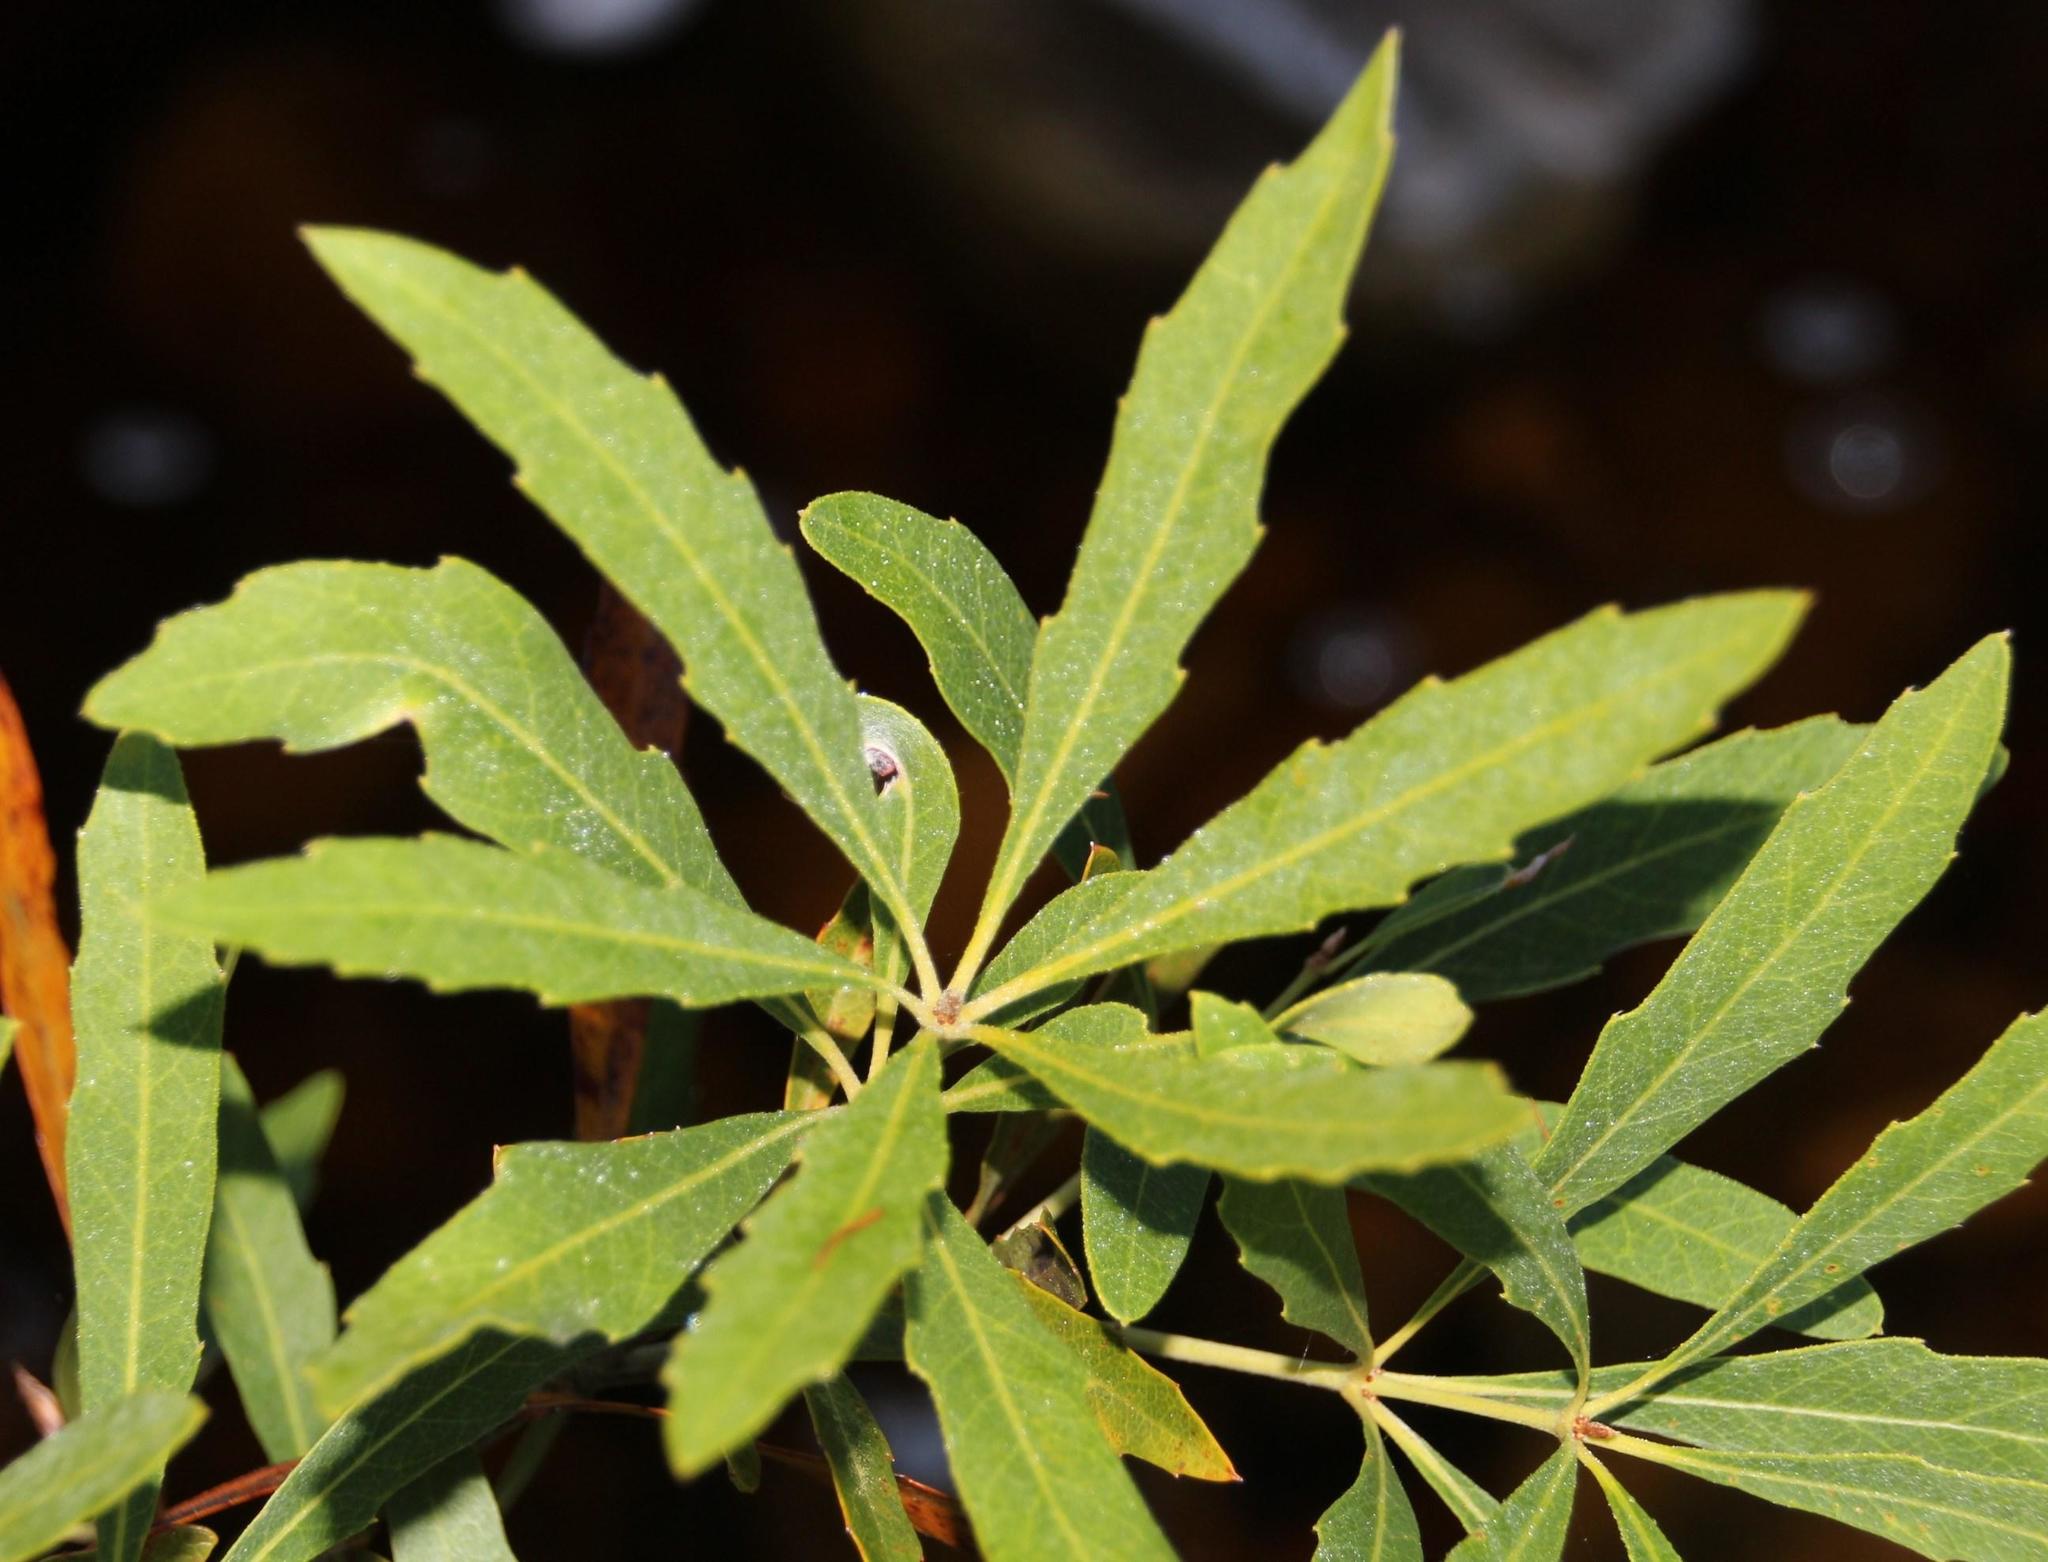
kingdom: Plantae
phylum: Tracheophyta
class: Magnoliopsida
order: Proteales
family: Proteaceae
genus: Brabejum
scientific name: Brabejum stellatifolium
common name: Wild almond
